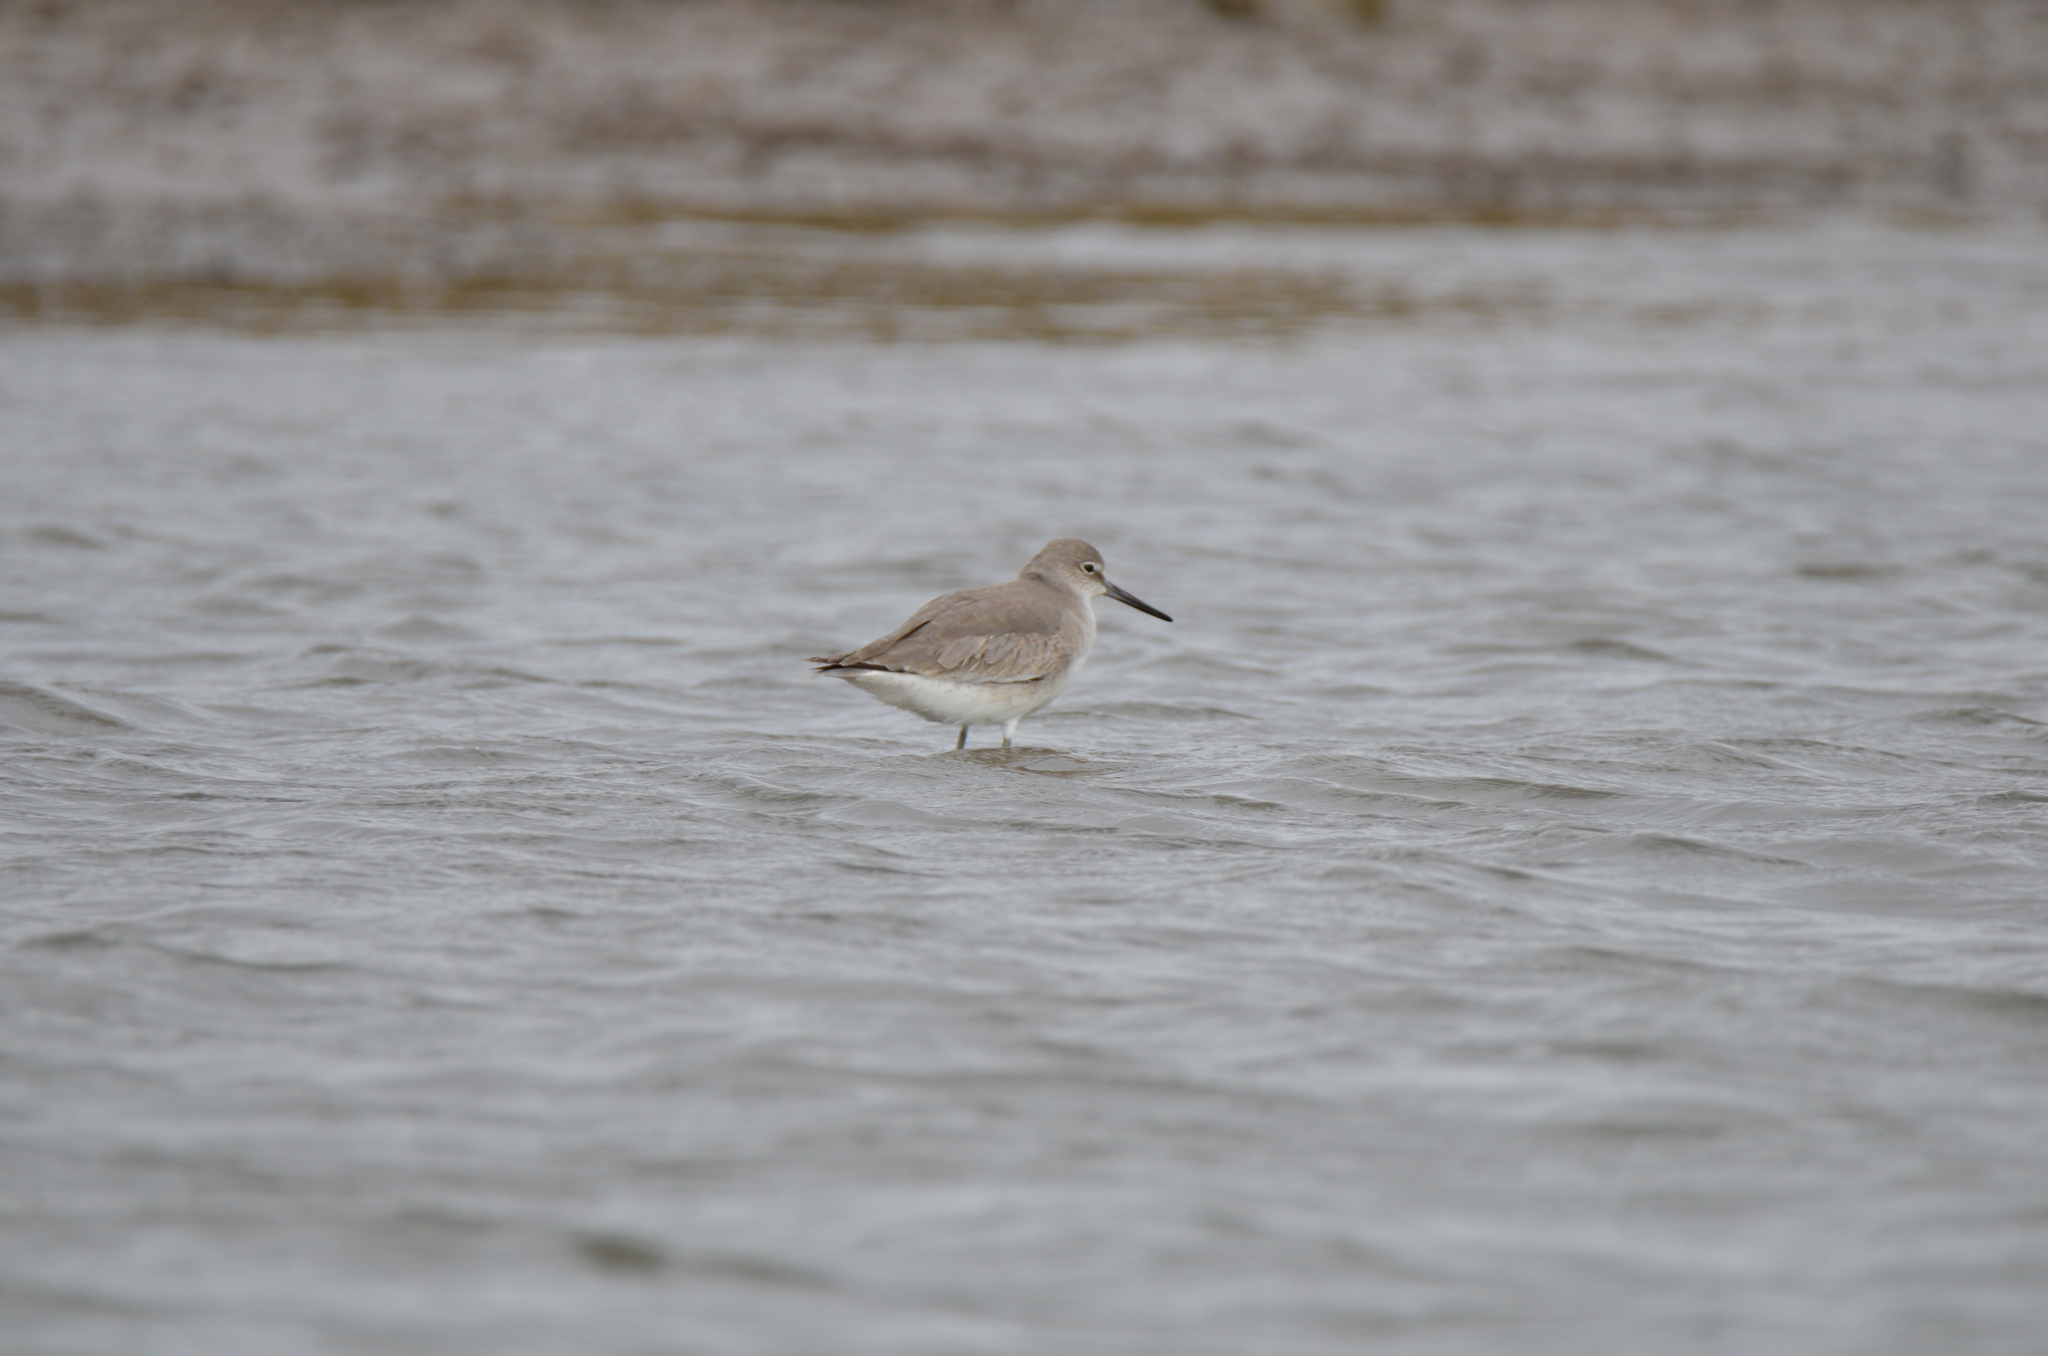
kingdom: Animalia
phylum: Chordata
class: Aves
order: Charadriiformes
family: Scolopacidae
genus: Tringa
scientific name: Tringa semipalmata
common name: Willet
